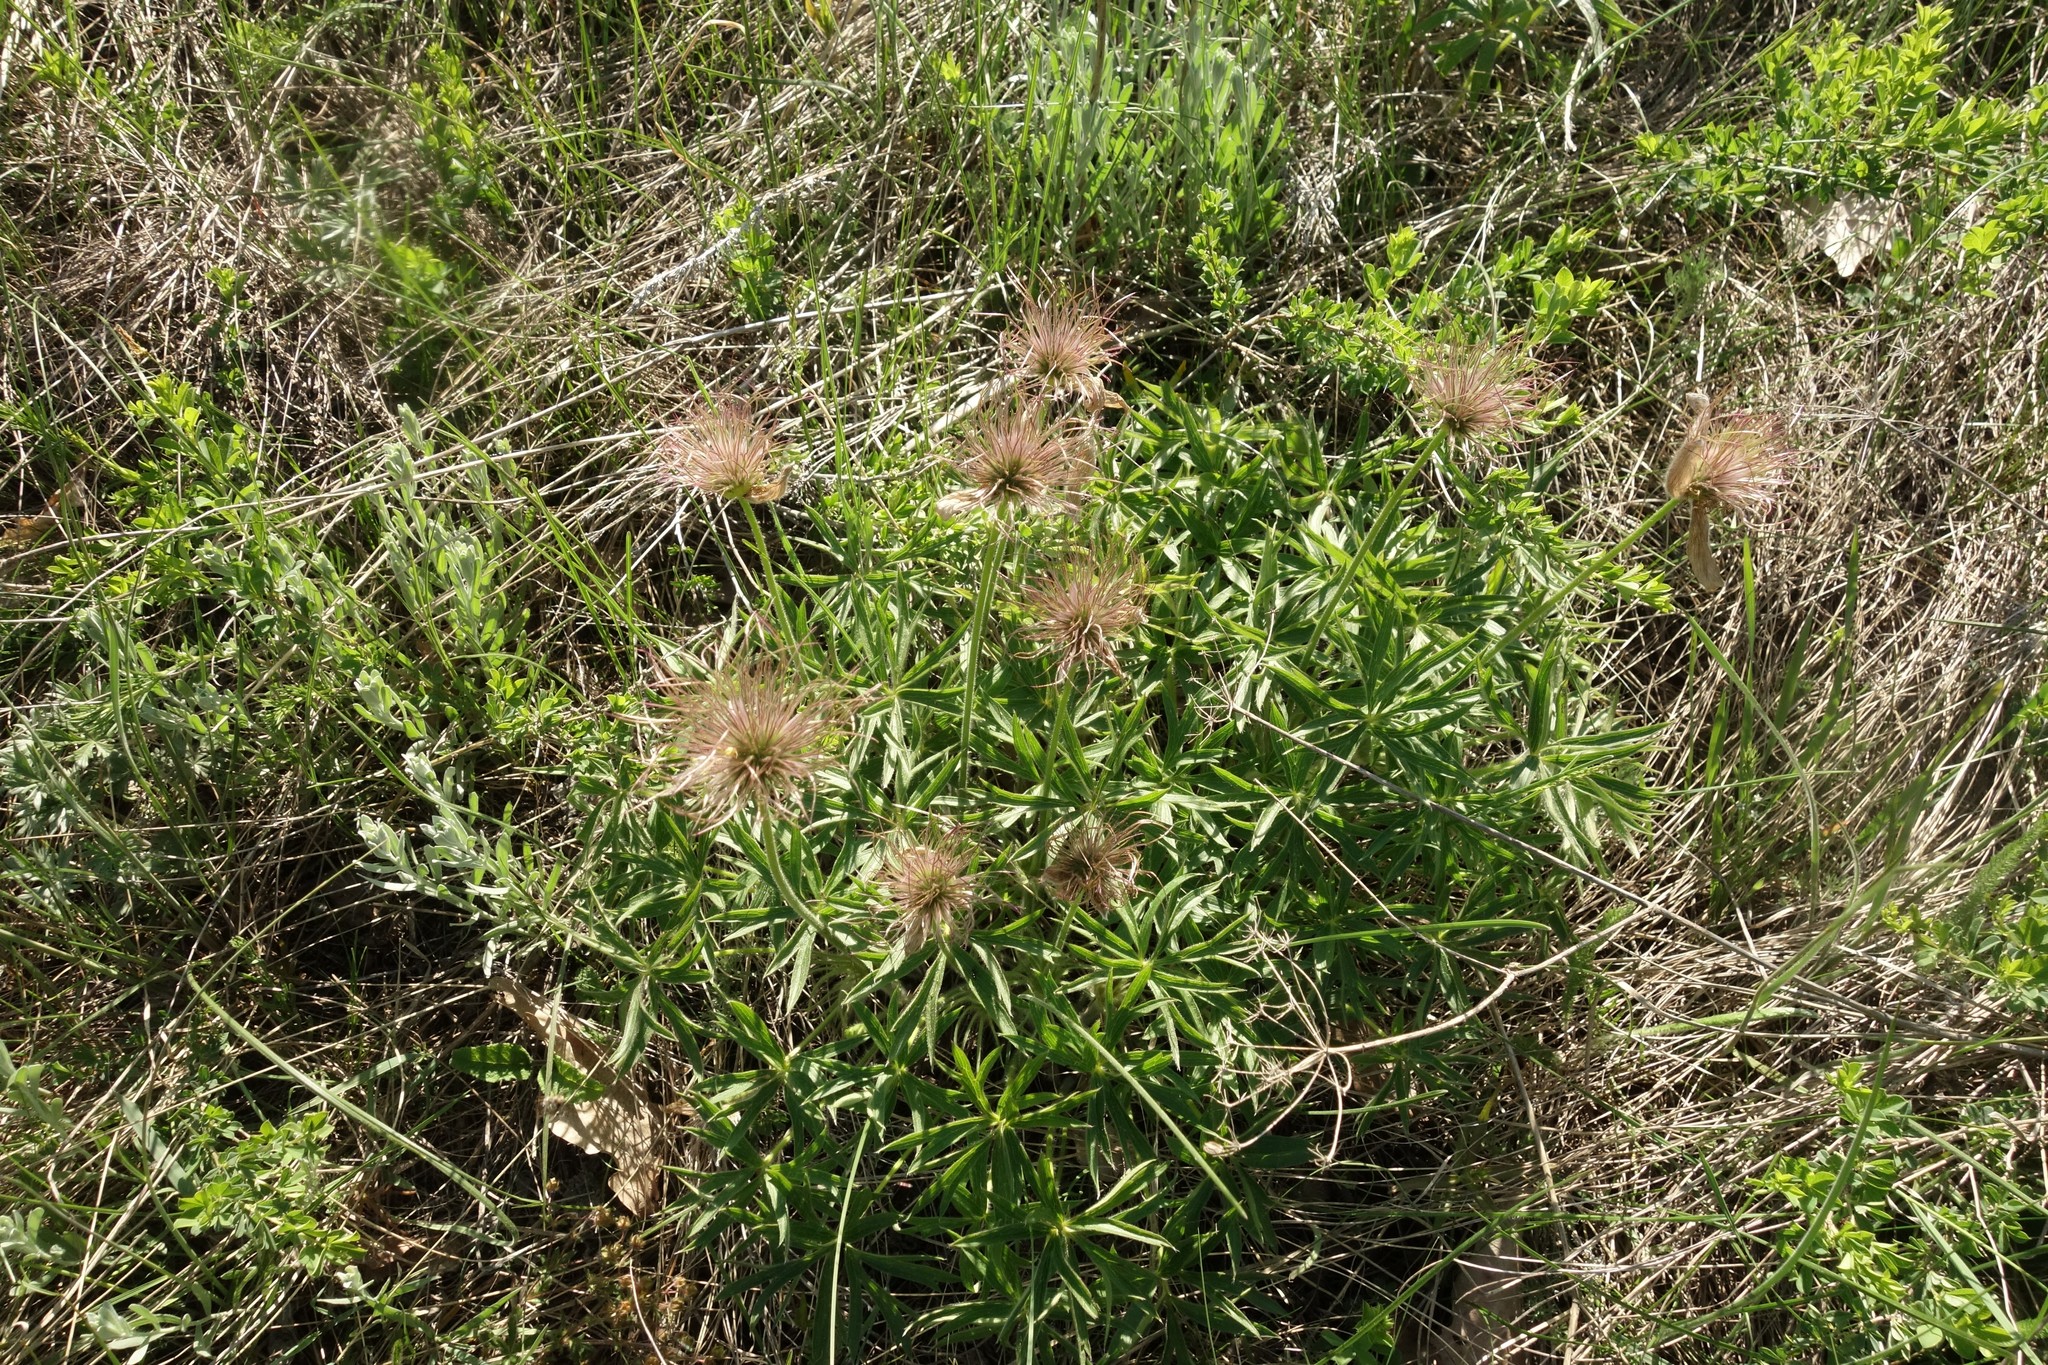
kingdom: Plantae
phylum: Tracheophyta
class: Magnoliopsida
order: Ranunculales
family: Ranunculaceae
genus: Pulsatilla
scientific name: Pulsatilla patens
